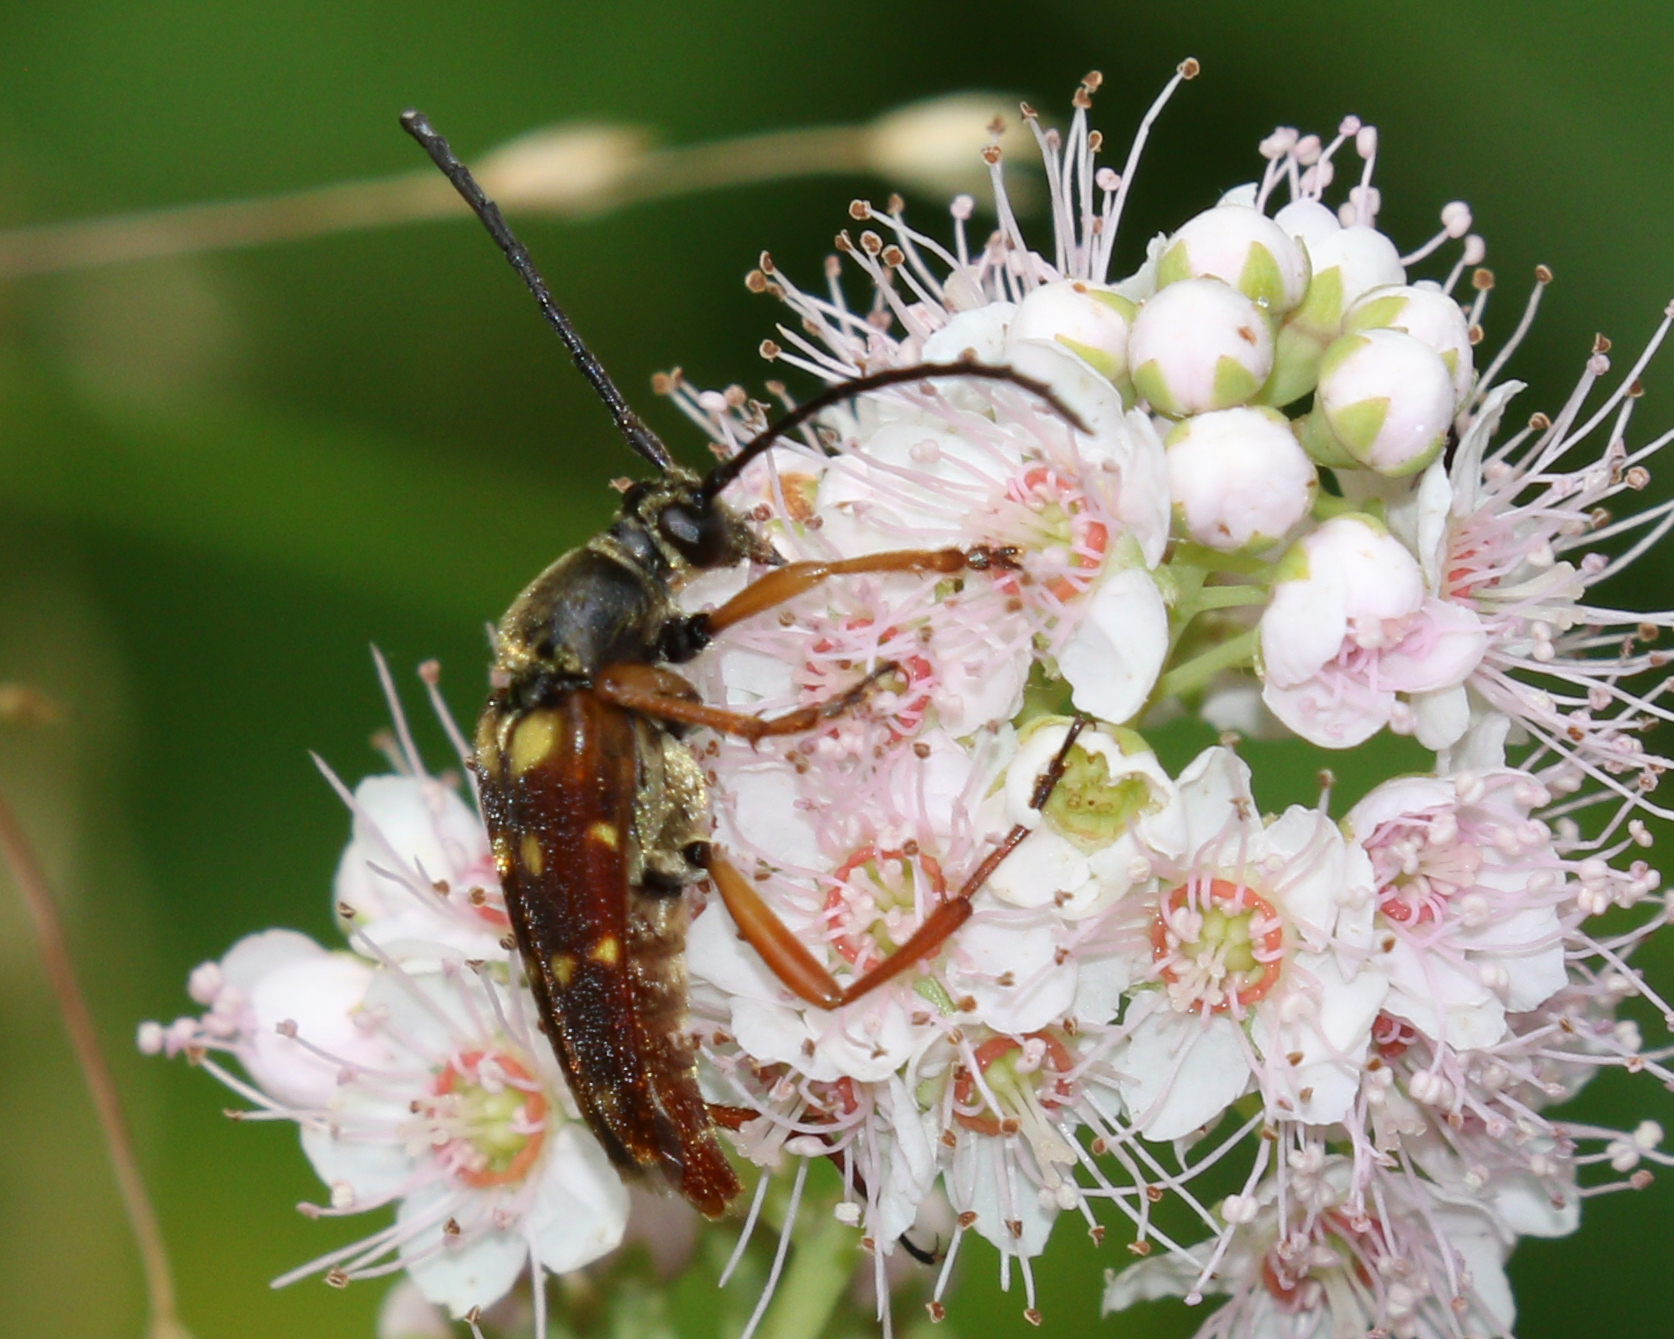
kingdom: Animalia
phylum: Arthropoda
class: Insecta
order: Coleoptera
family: Cerambycidae
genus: Typocerus
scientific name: Typocerus velutinus
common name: Banded longhorn beetle
